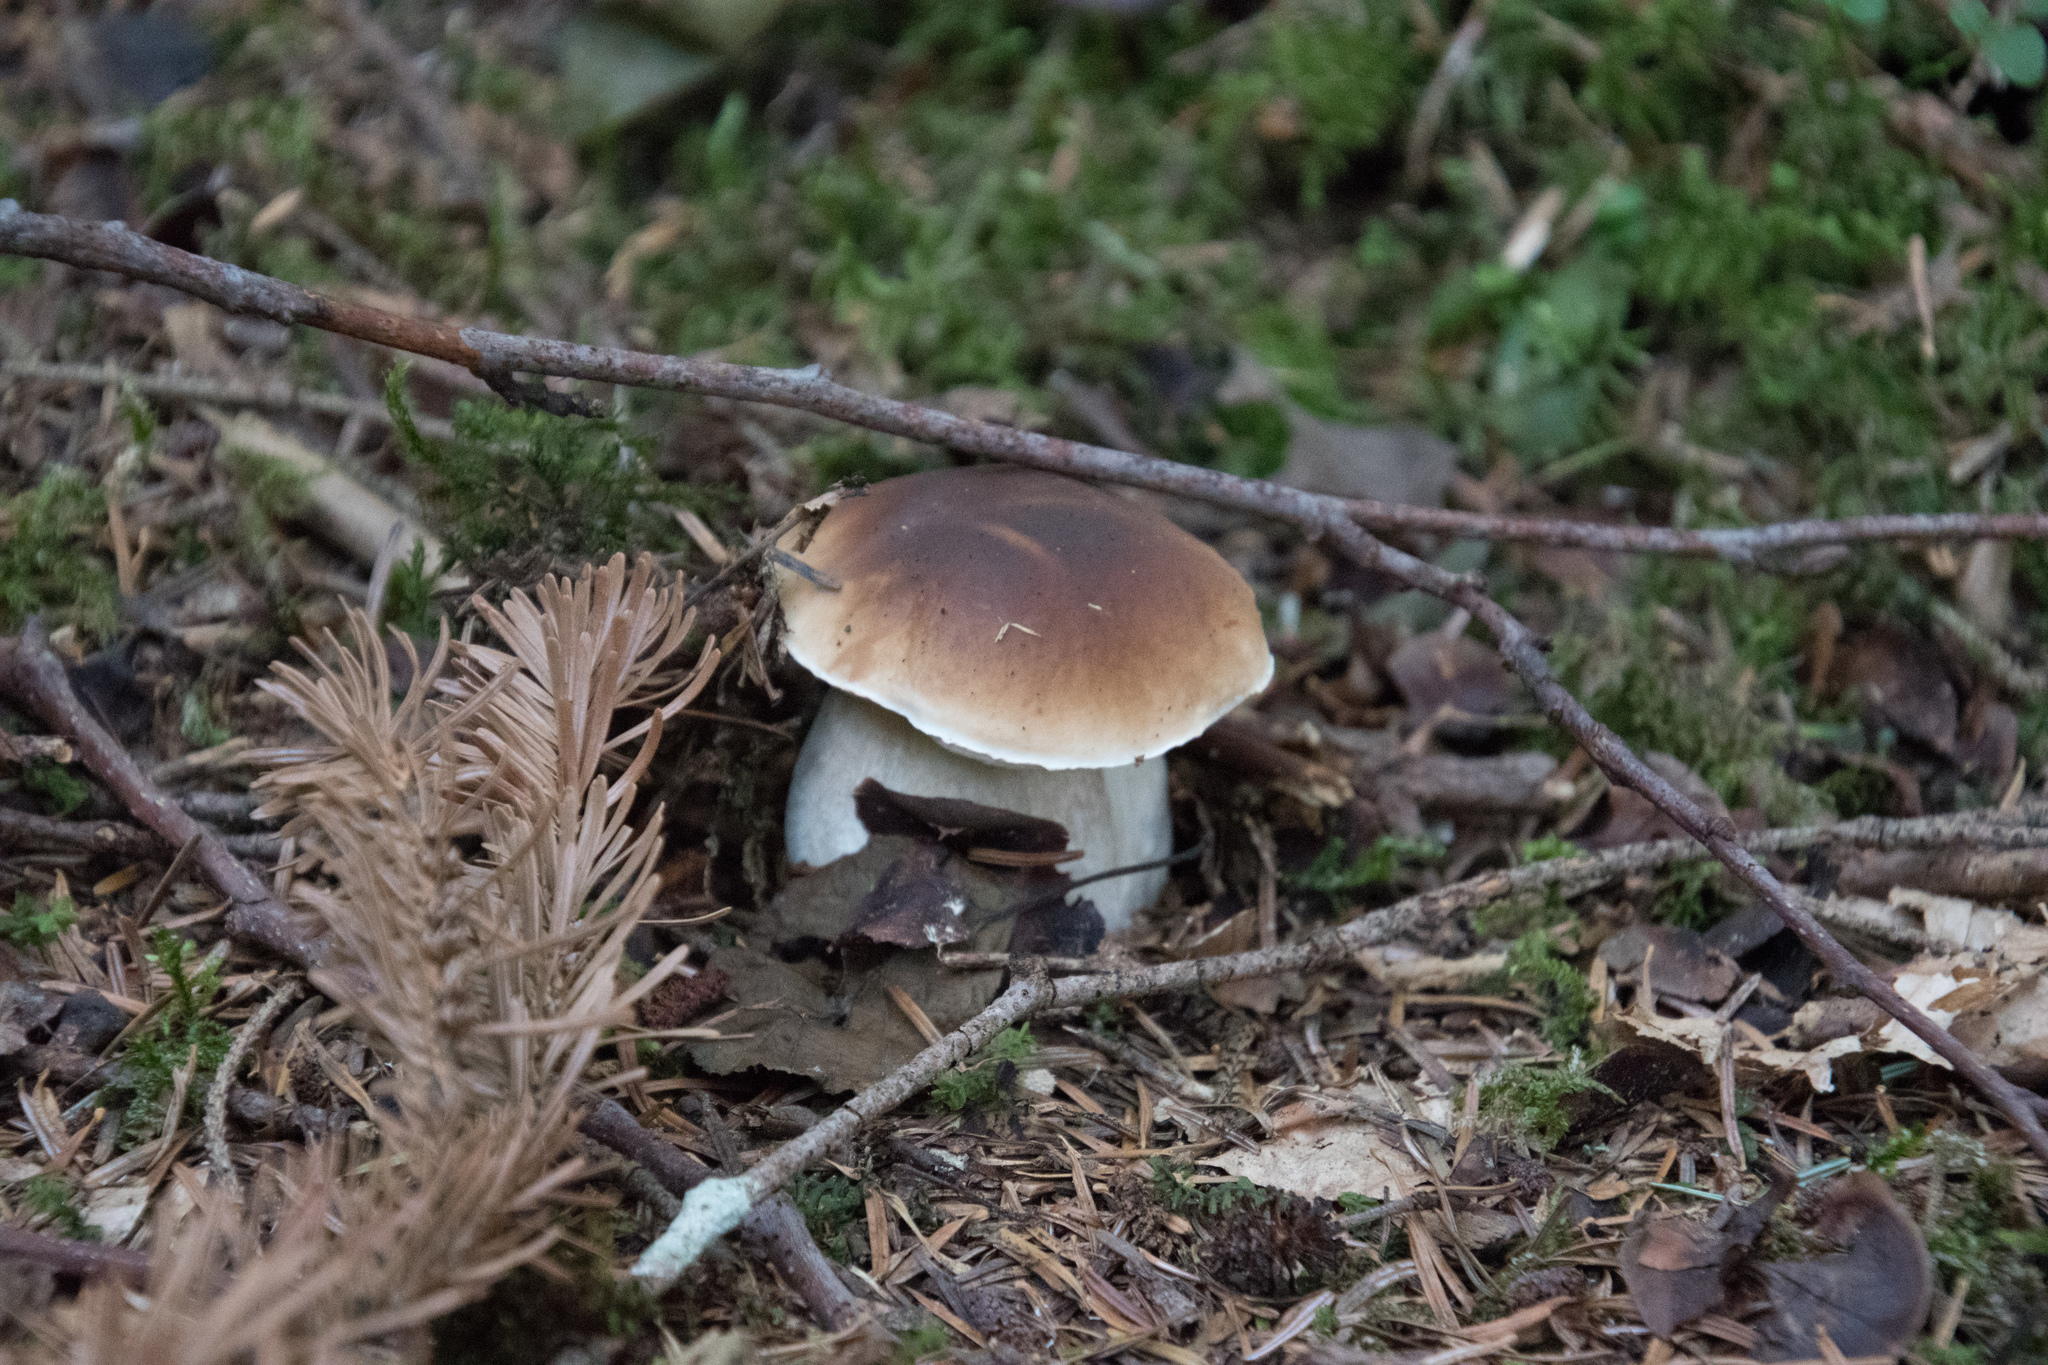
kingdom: Fungi
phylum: Basidiomycota
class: Agaricomycetes
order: Boletales
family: Boletaceae
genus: Boletus
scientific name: Boletus edulis
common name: Cep
